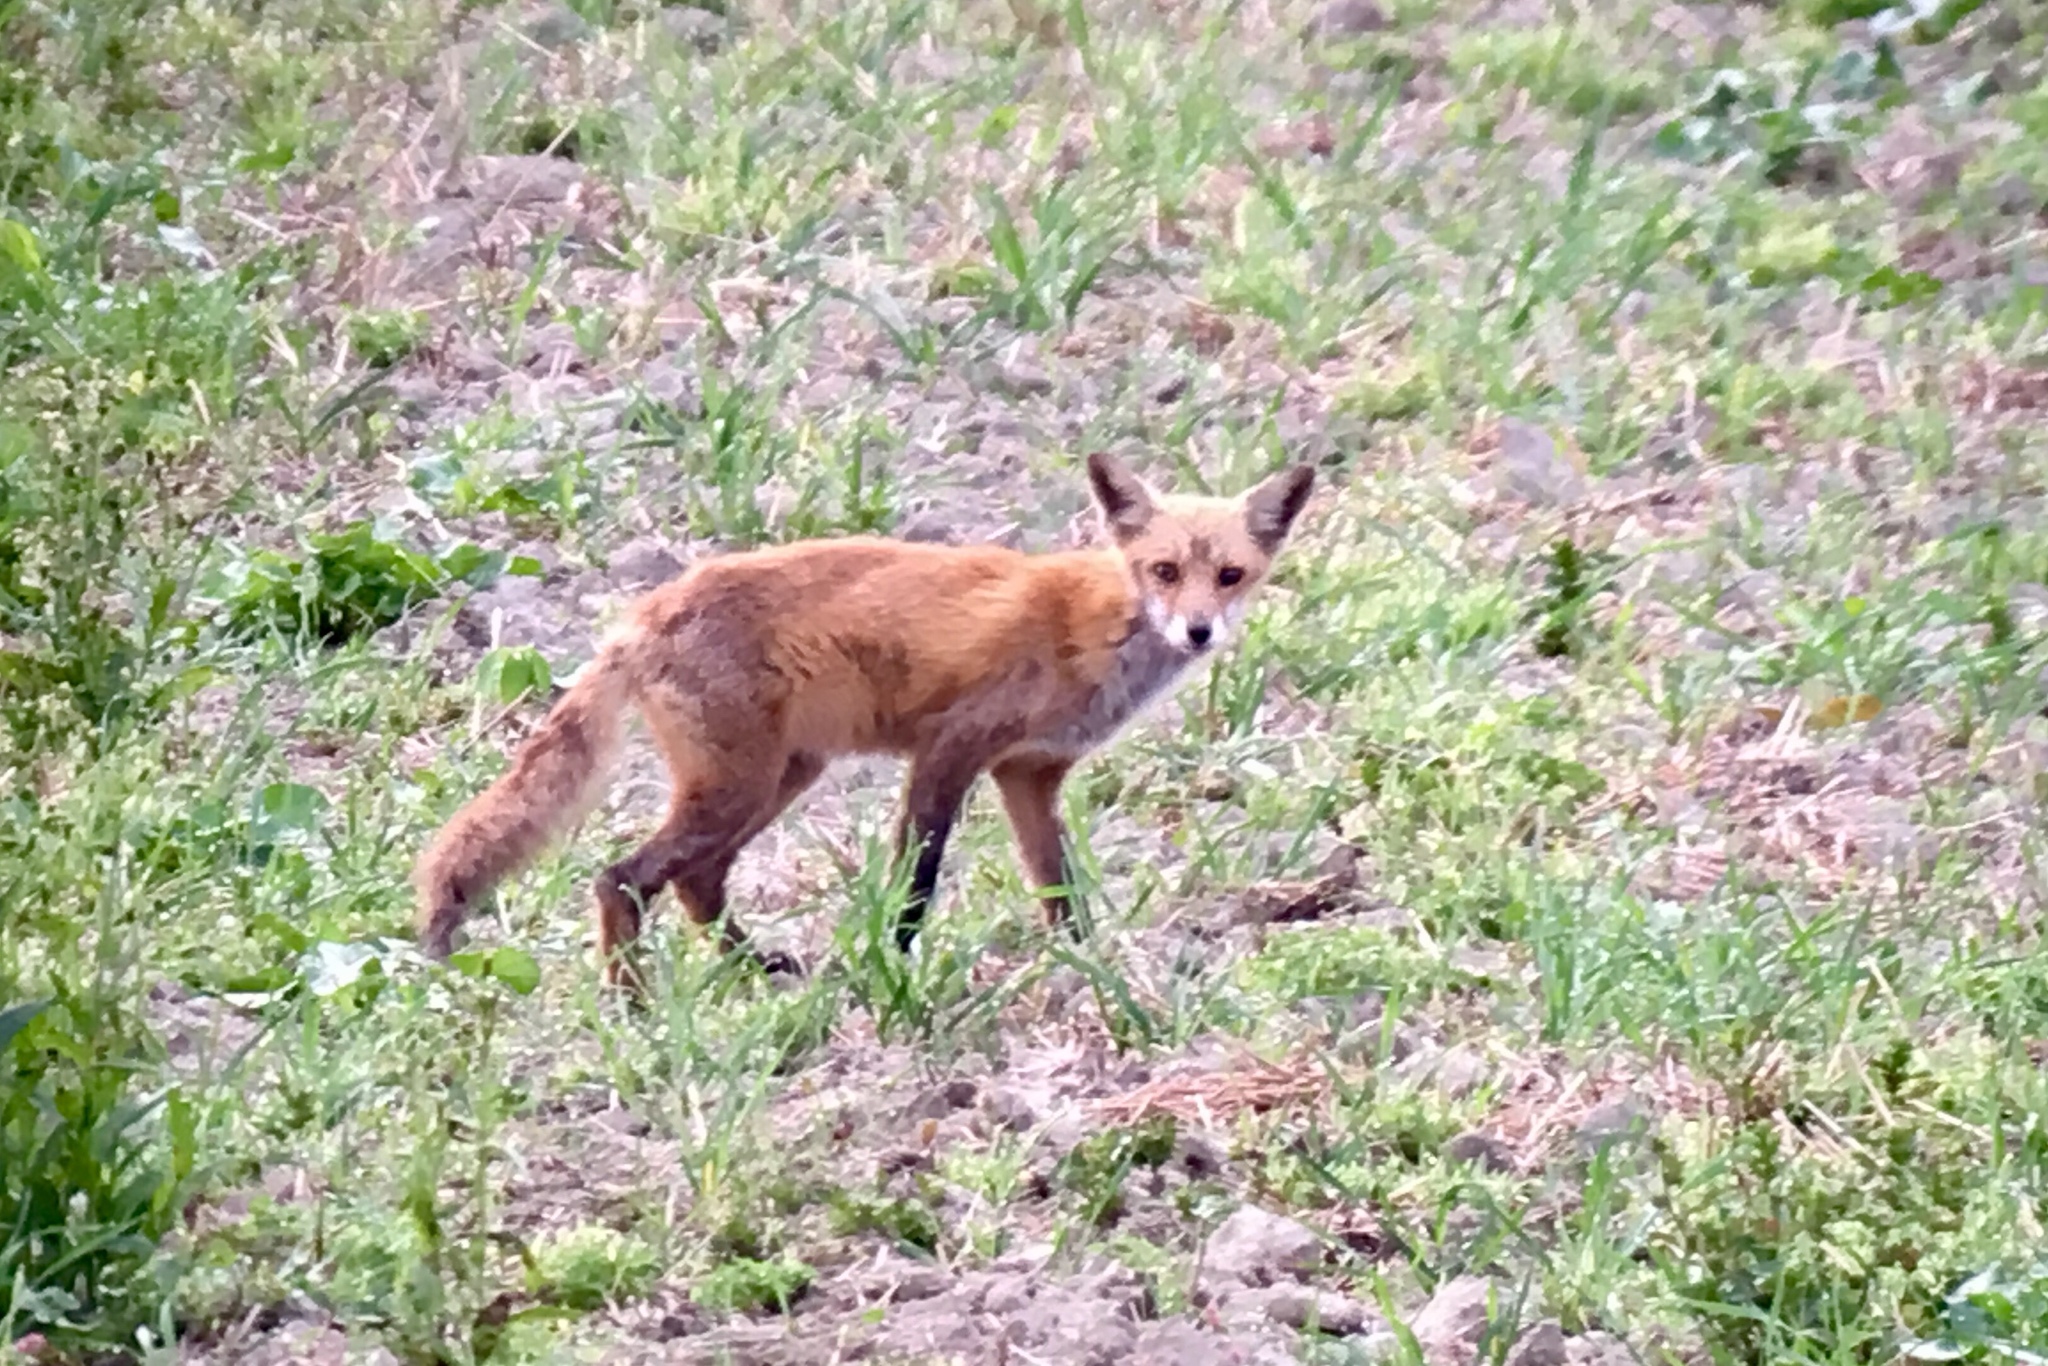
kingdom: Animalia
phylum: Chordata
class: Mammalia
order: Carnivora
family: Canidae
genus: Vulpes
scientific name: Vulpes vulpes
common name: Red fox
